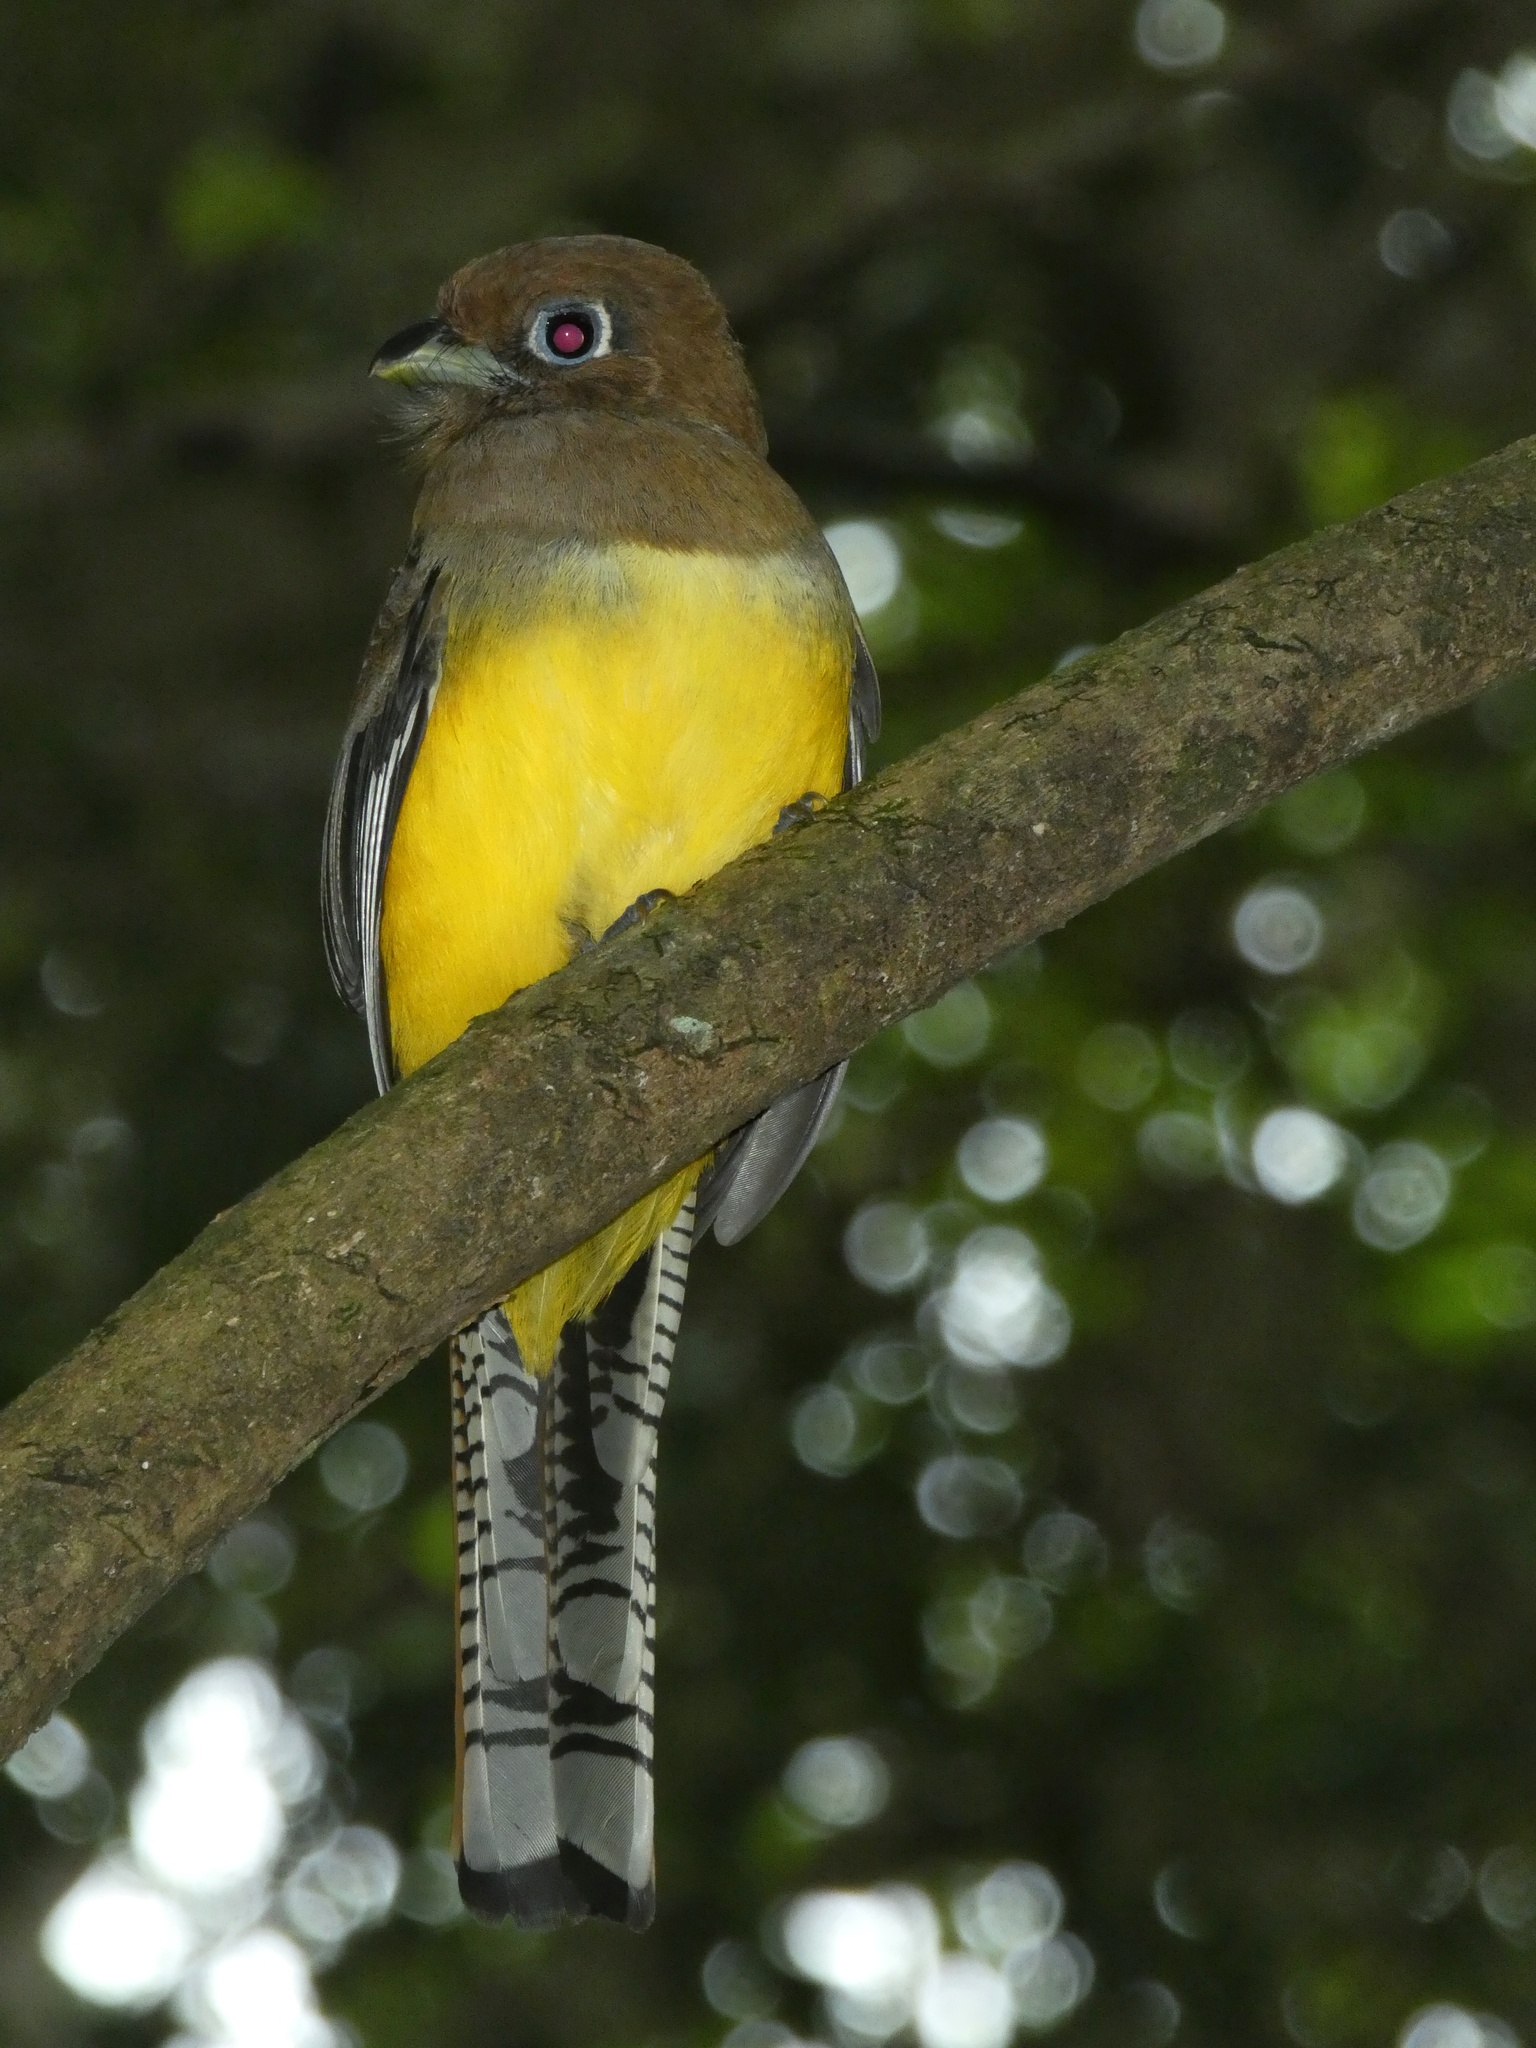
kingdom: Animalia
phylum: Chordata
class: Aves
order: Trogoniformes
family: Trogonidae
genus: Trogon
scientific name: Trogon rufus
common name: Black-throated trogon
